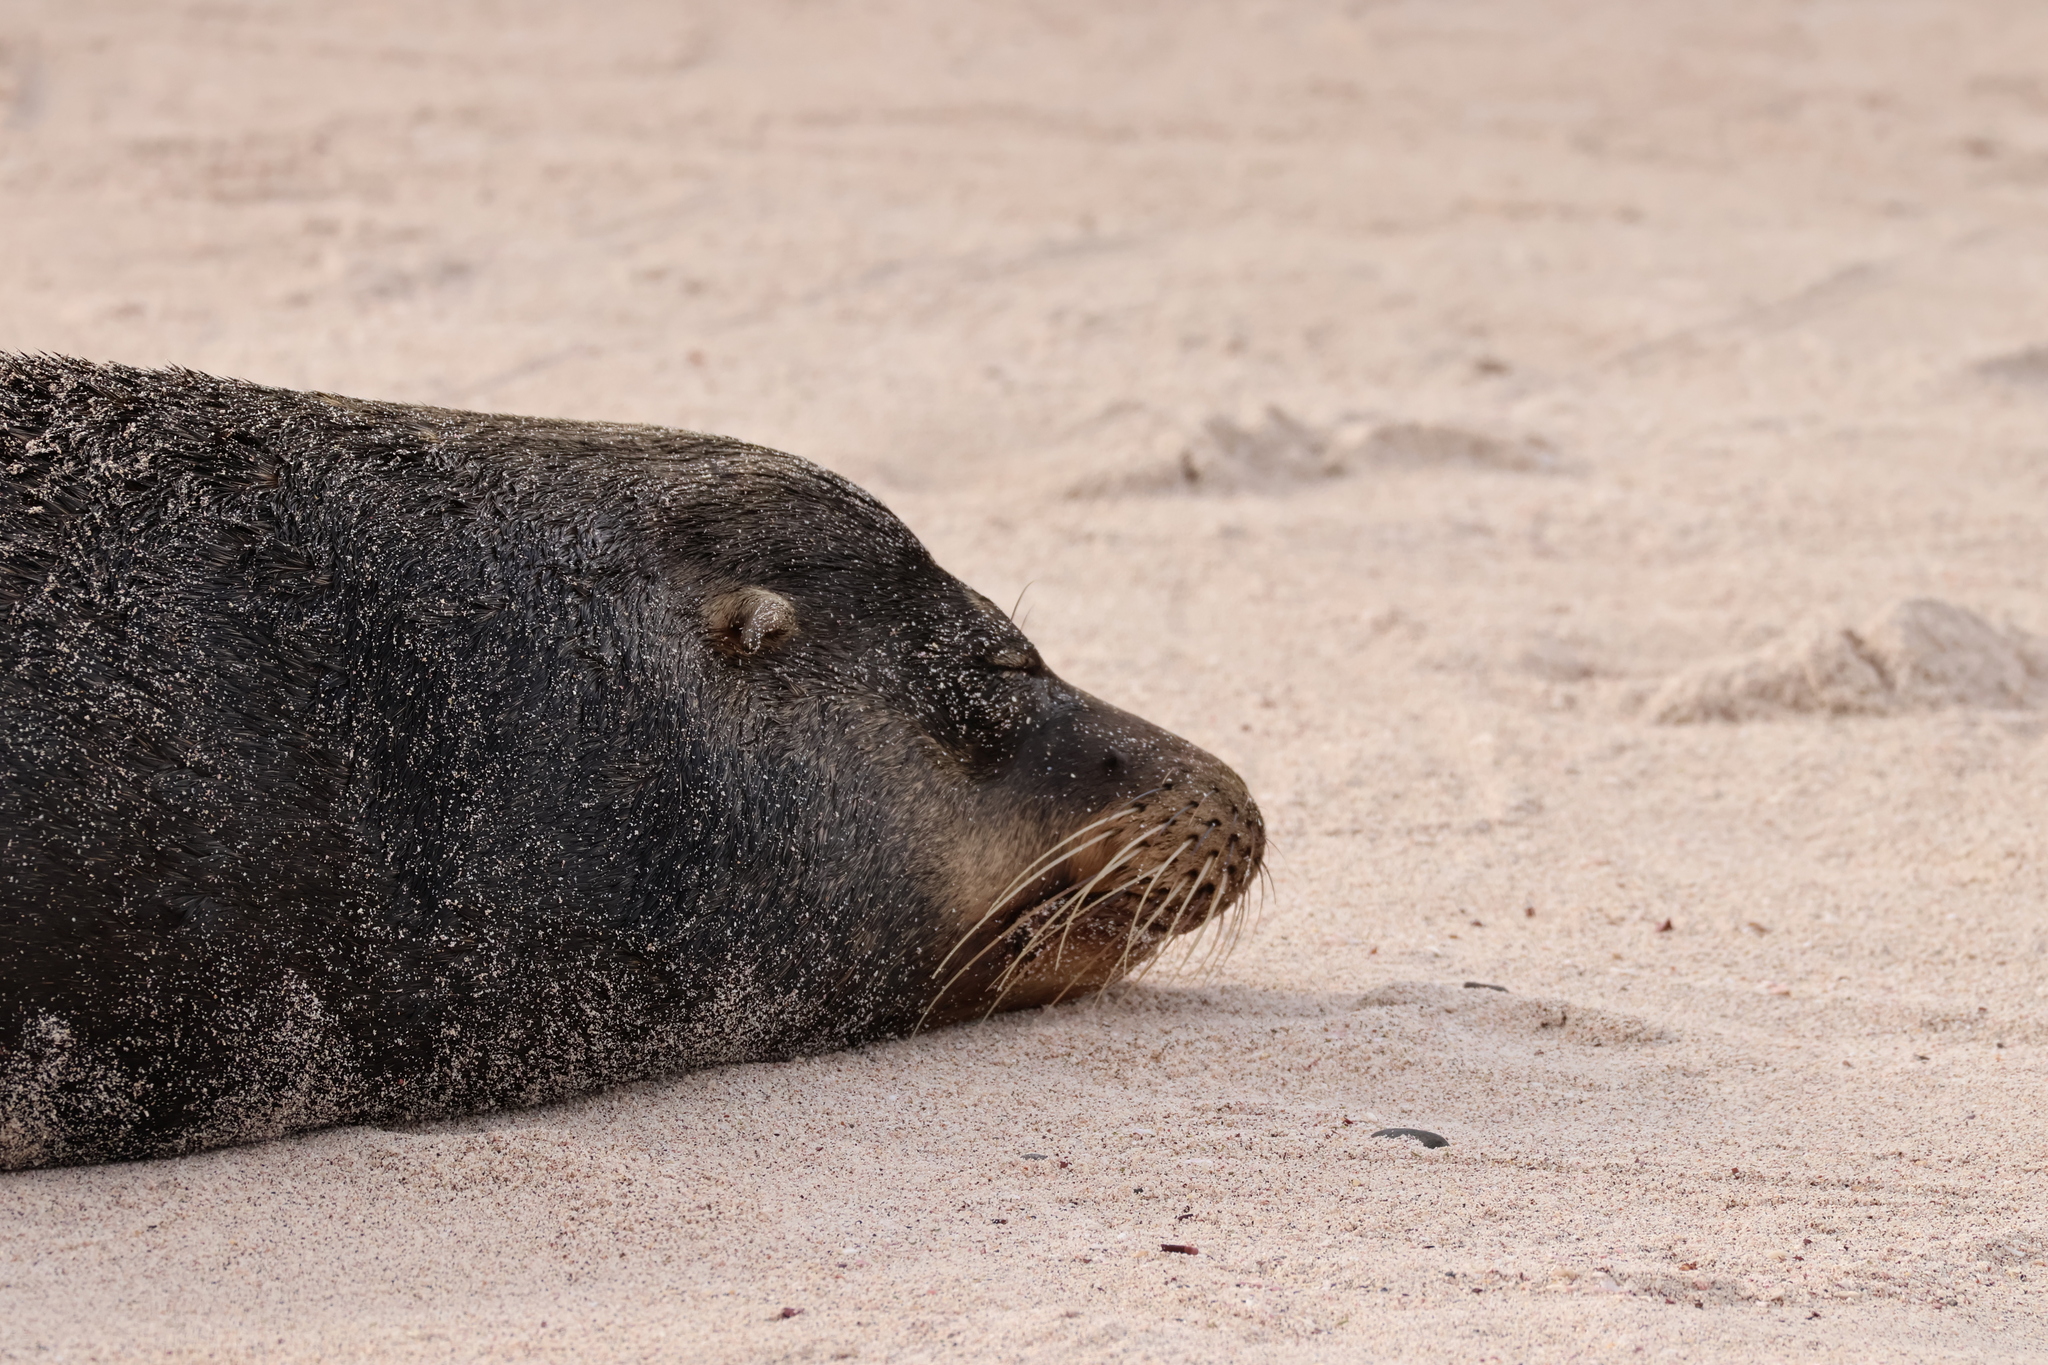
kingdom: Animalia
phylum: Chordata
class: Mammalia
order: Carnivora
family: Otariidae
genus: Zalophus
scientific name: Zalophus wollebaeki
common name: Galapagos sea lion
